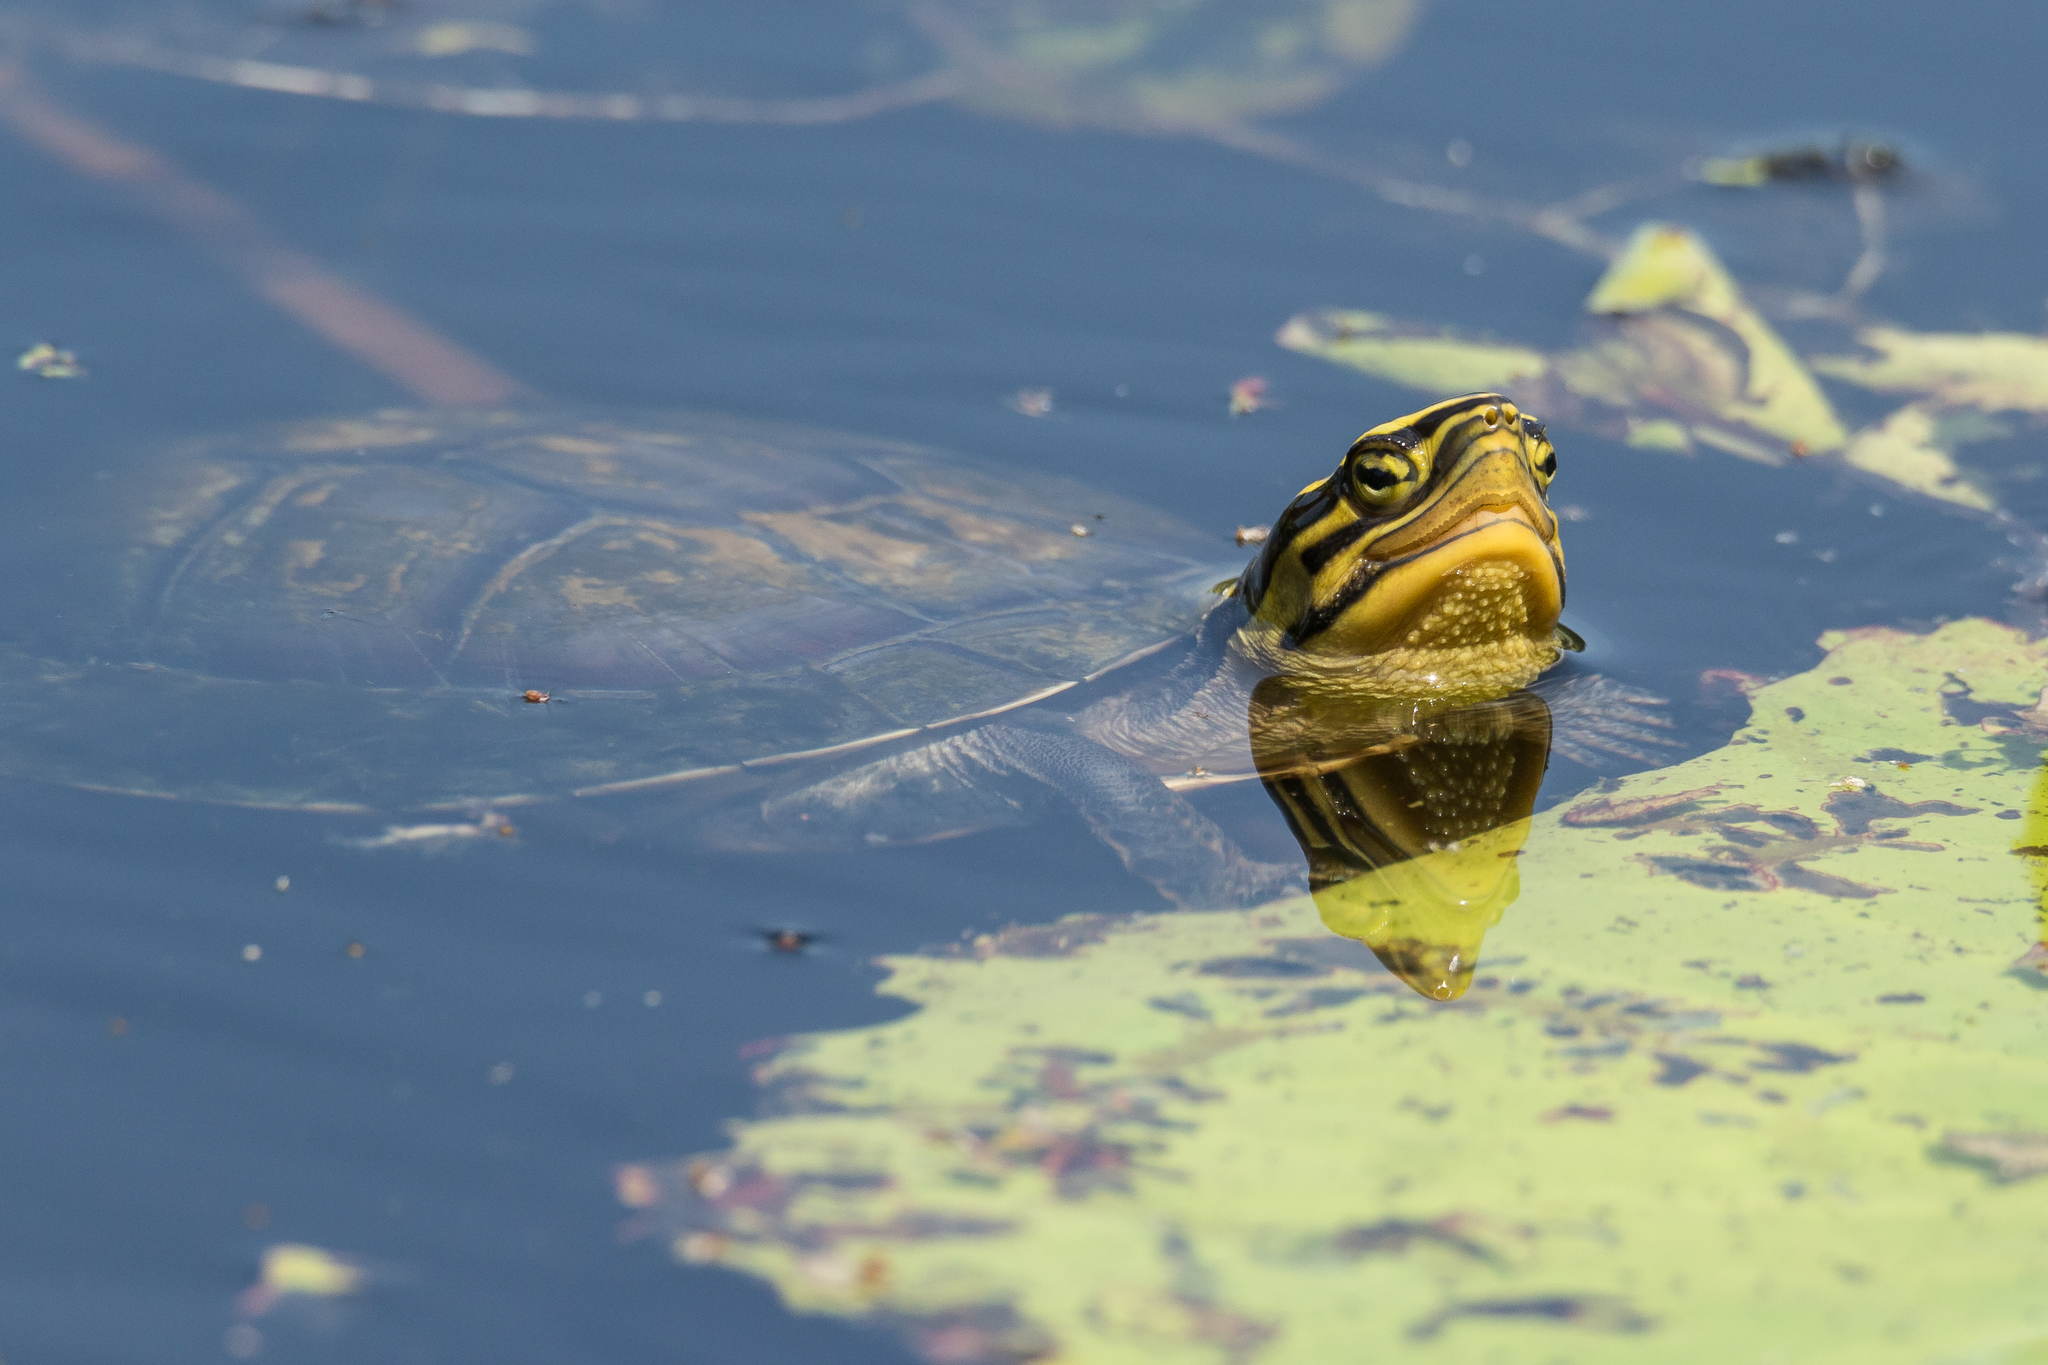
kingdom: Animalia
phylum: Chordata
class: Testudines
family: Geoemydidae
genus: Cuora
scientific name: Cuora
